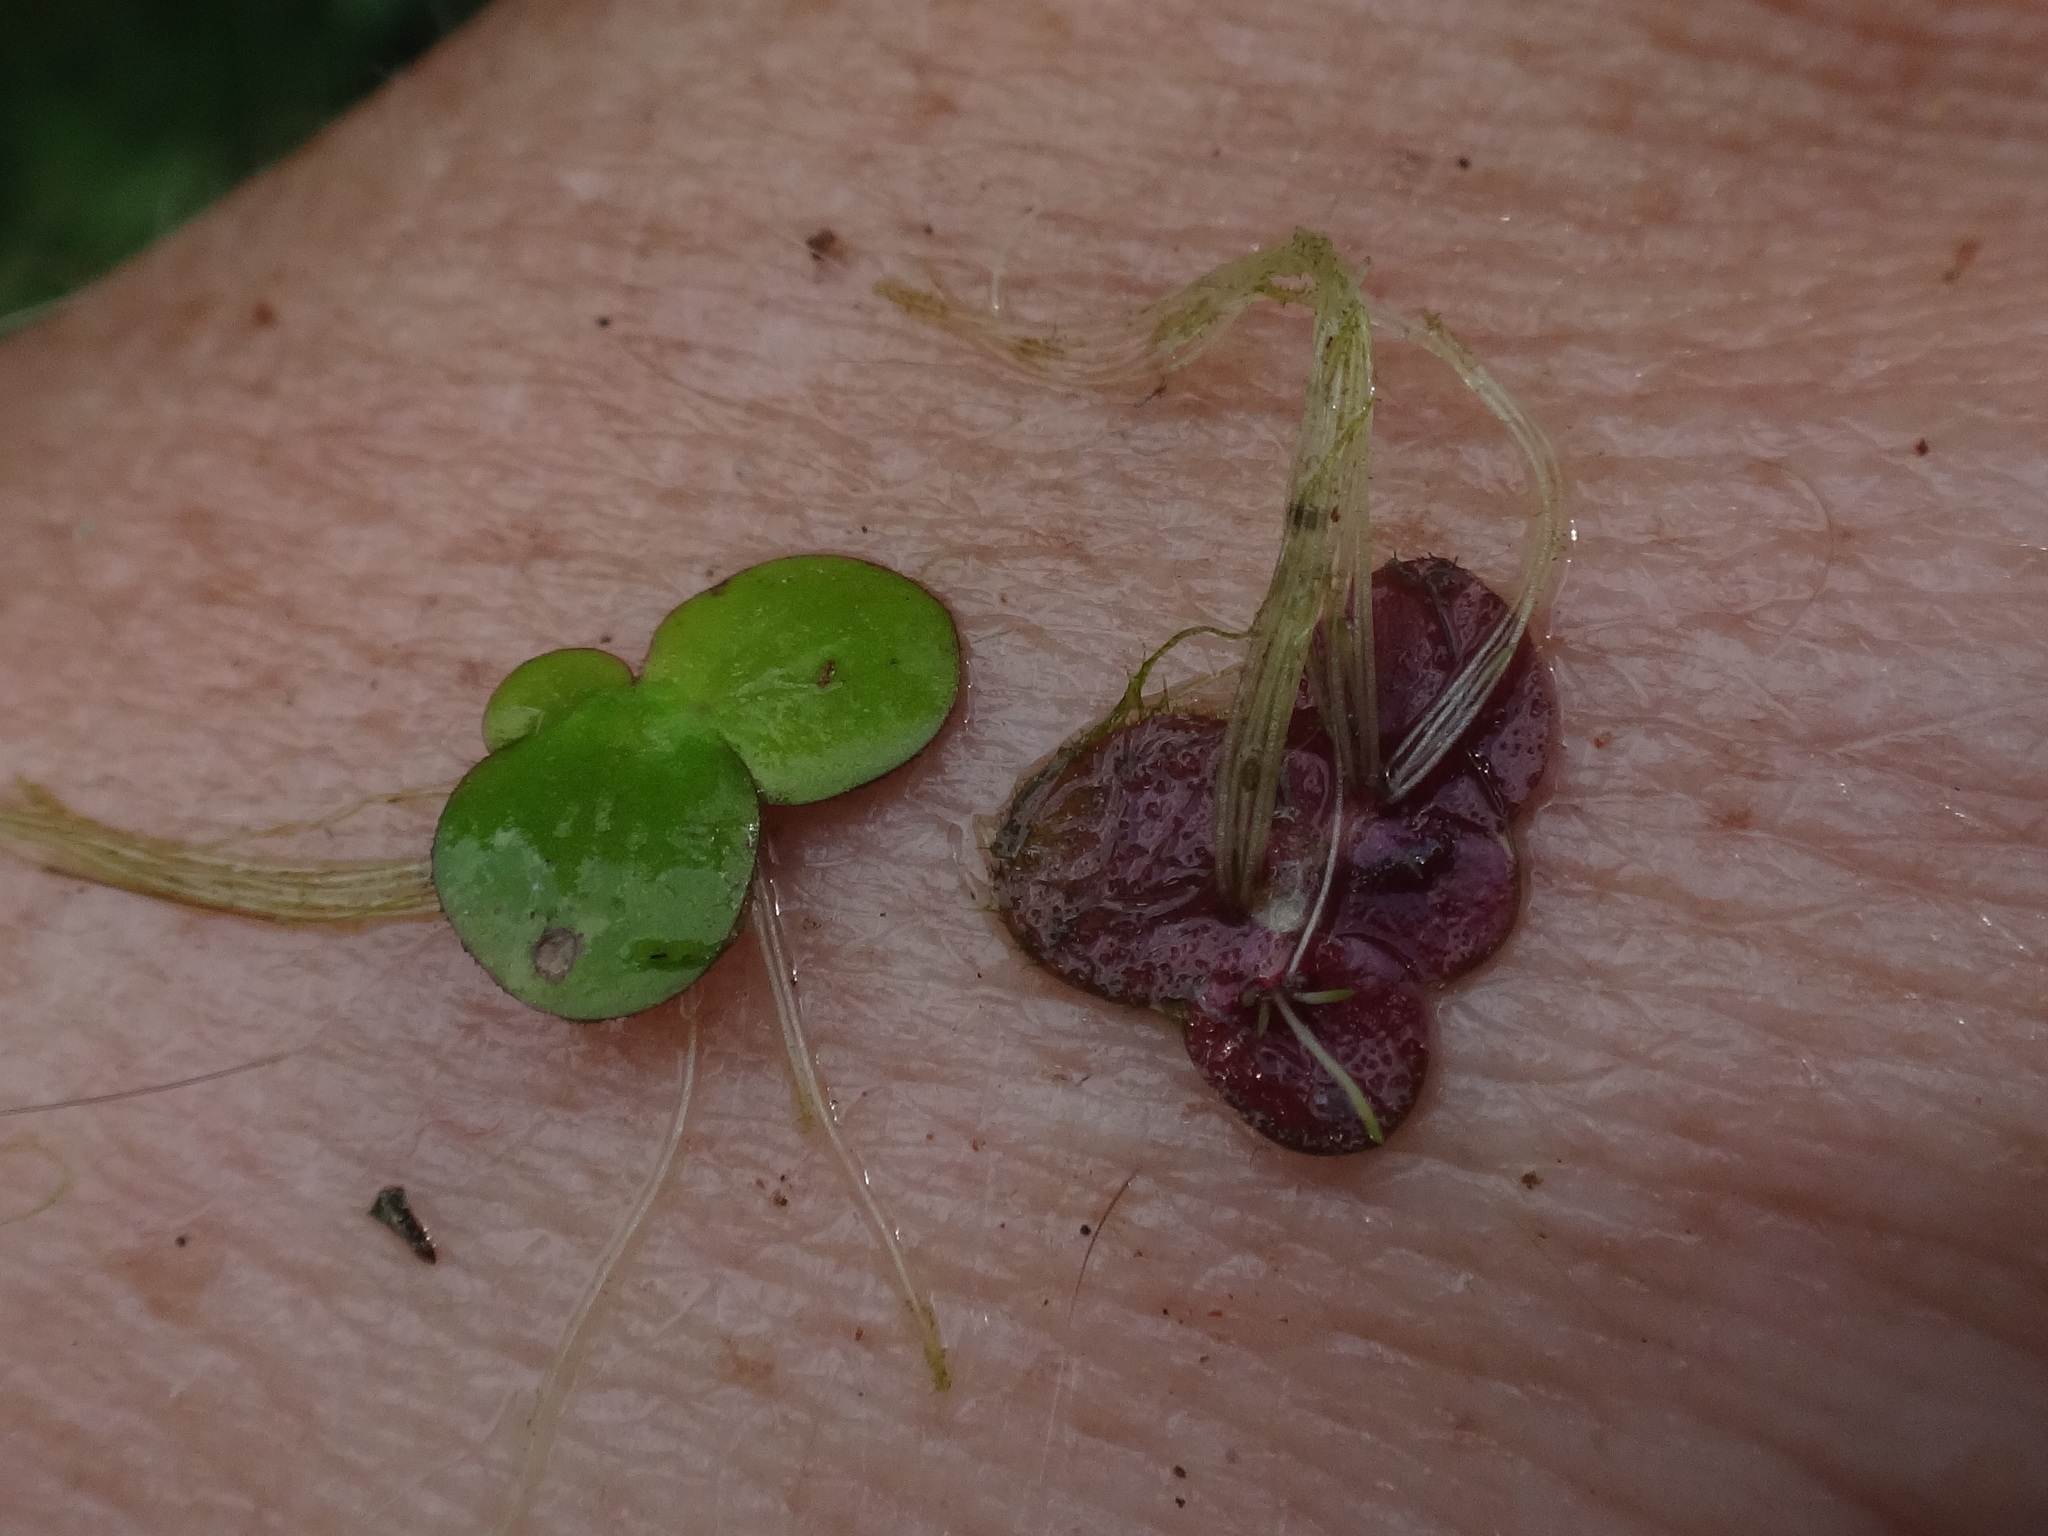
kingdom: Plantae
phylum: Tracheophyta
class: Liliopsida
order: Alismatales
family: Araceae
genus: Spirodela
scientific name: Spirodela polyrhiza
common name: Great duckweed
